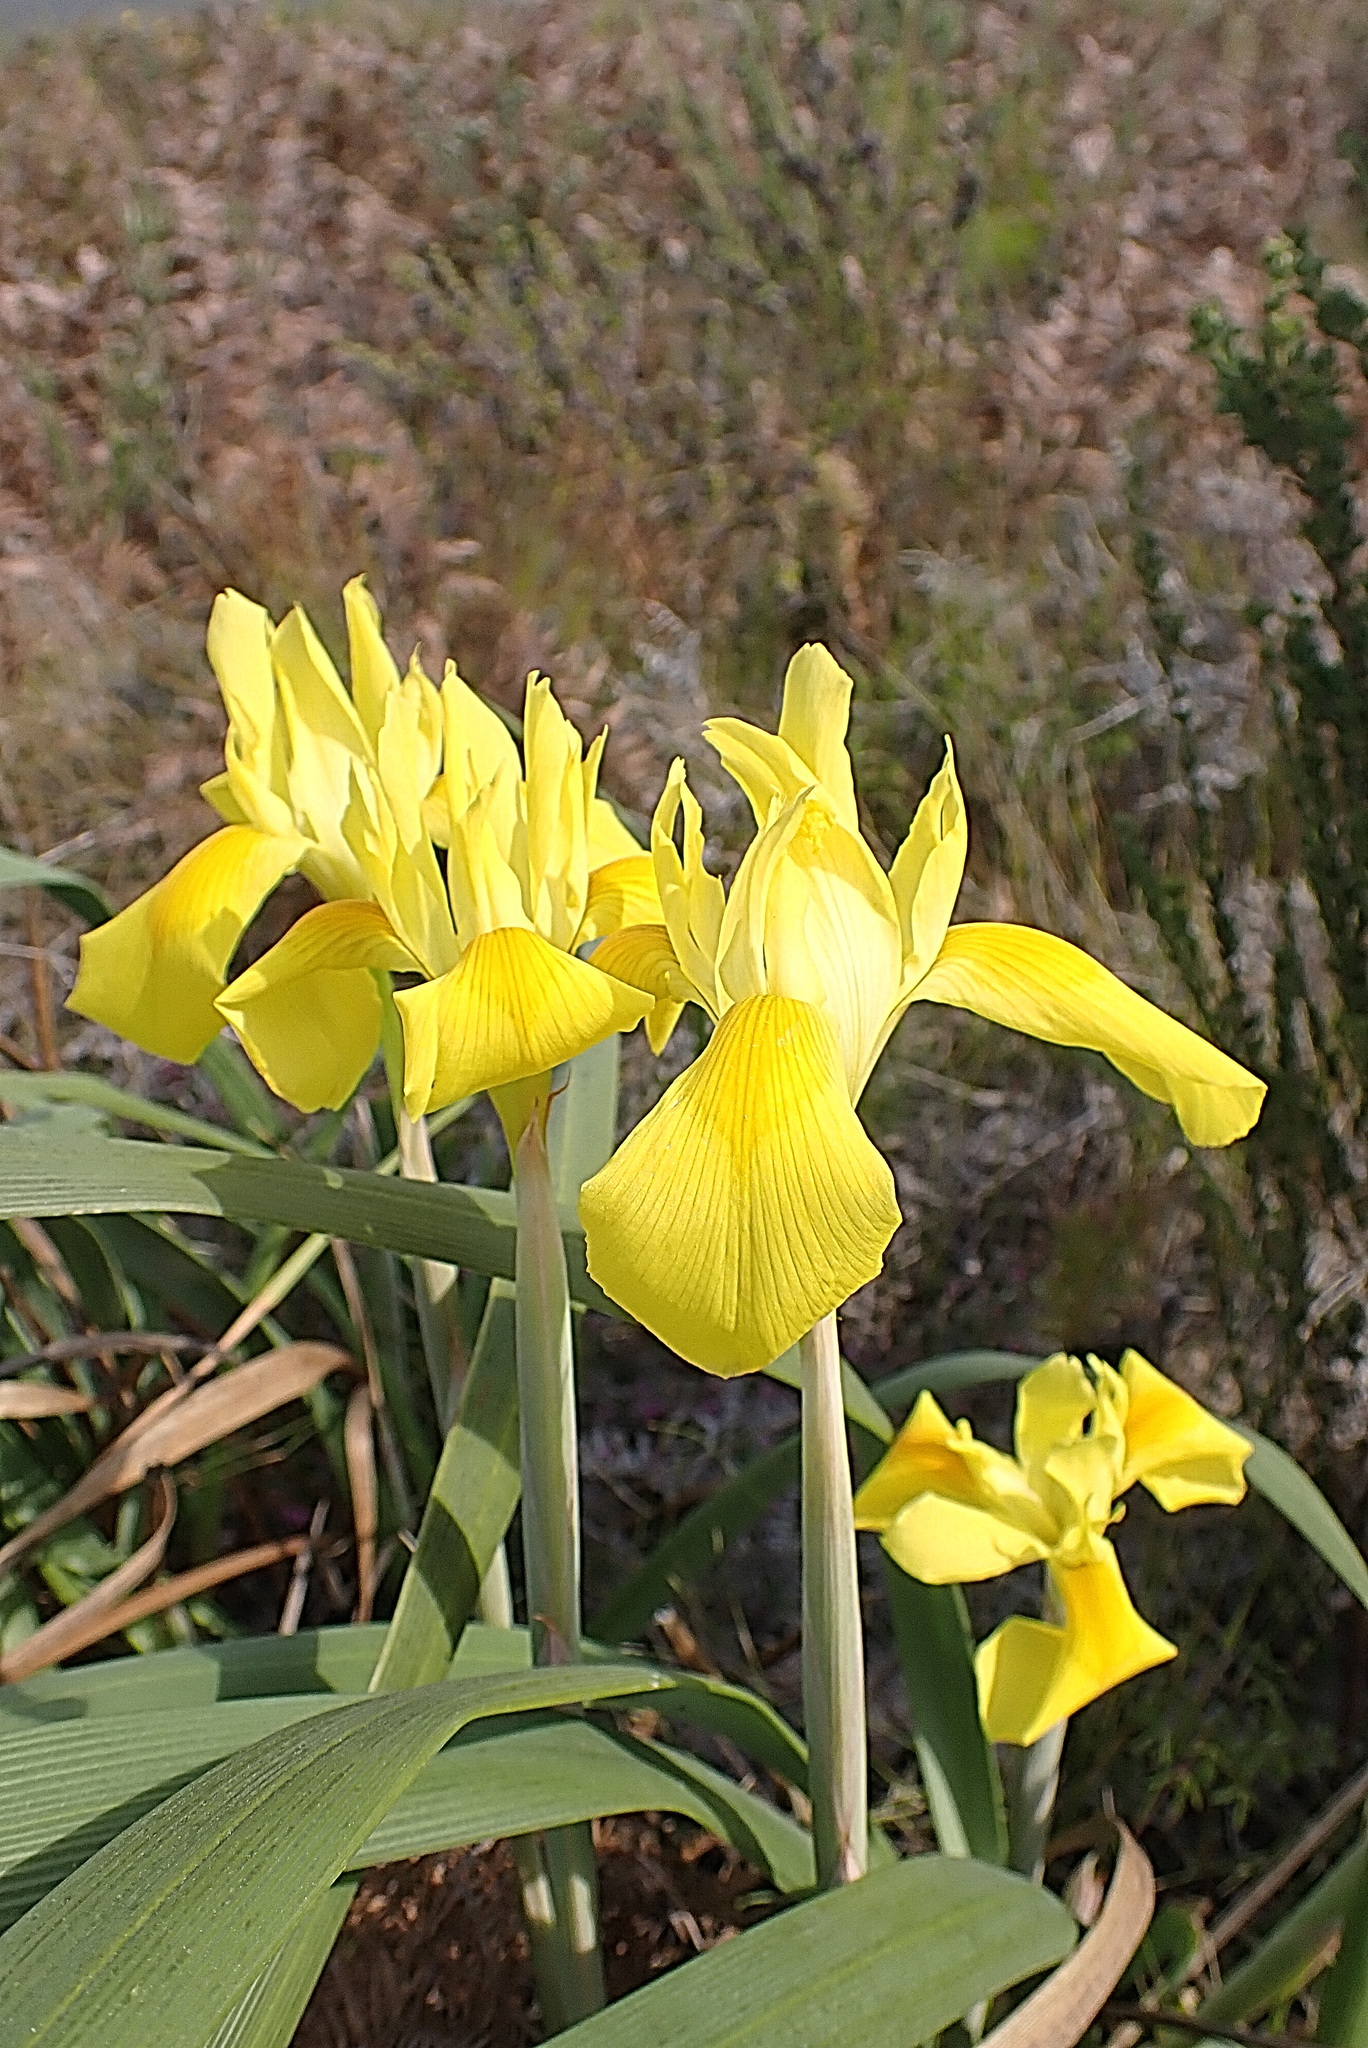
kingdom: Plantae
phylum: Tracheophyta
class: Liliopsida
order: Asparagales
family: Iridaceae
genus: Moraea
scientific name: Moraea spathulata
